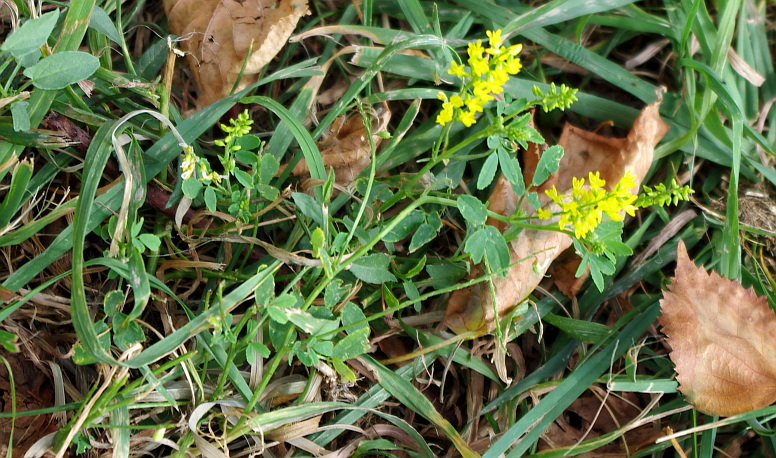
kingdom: Plantae
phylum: Tracheophyta
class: Magnoliopsida
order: Fabales
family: Fabaceae
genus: Melilotus
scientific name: Melilotus officinalis
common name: Sweetclover
